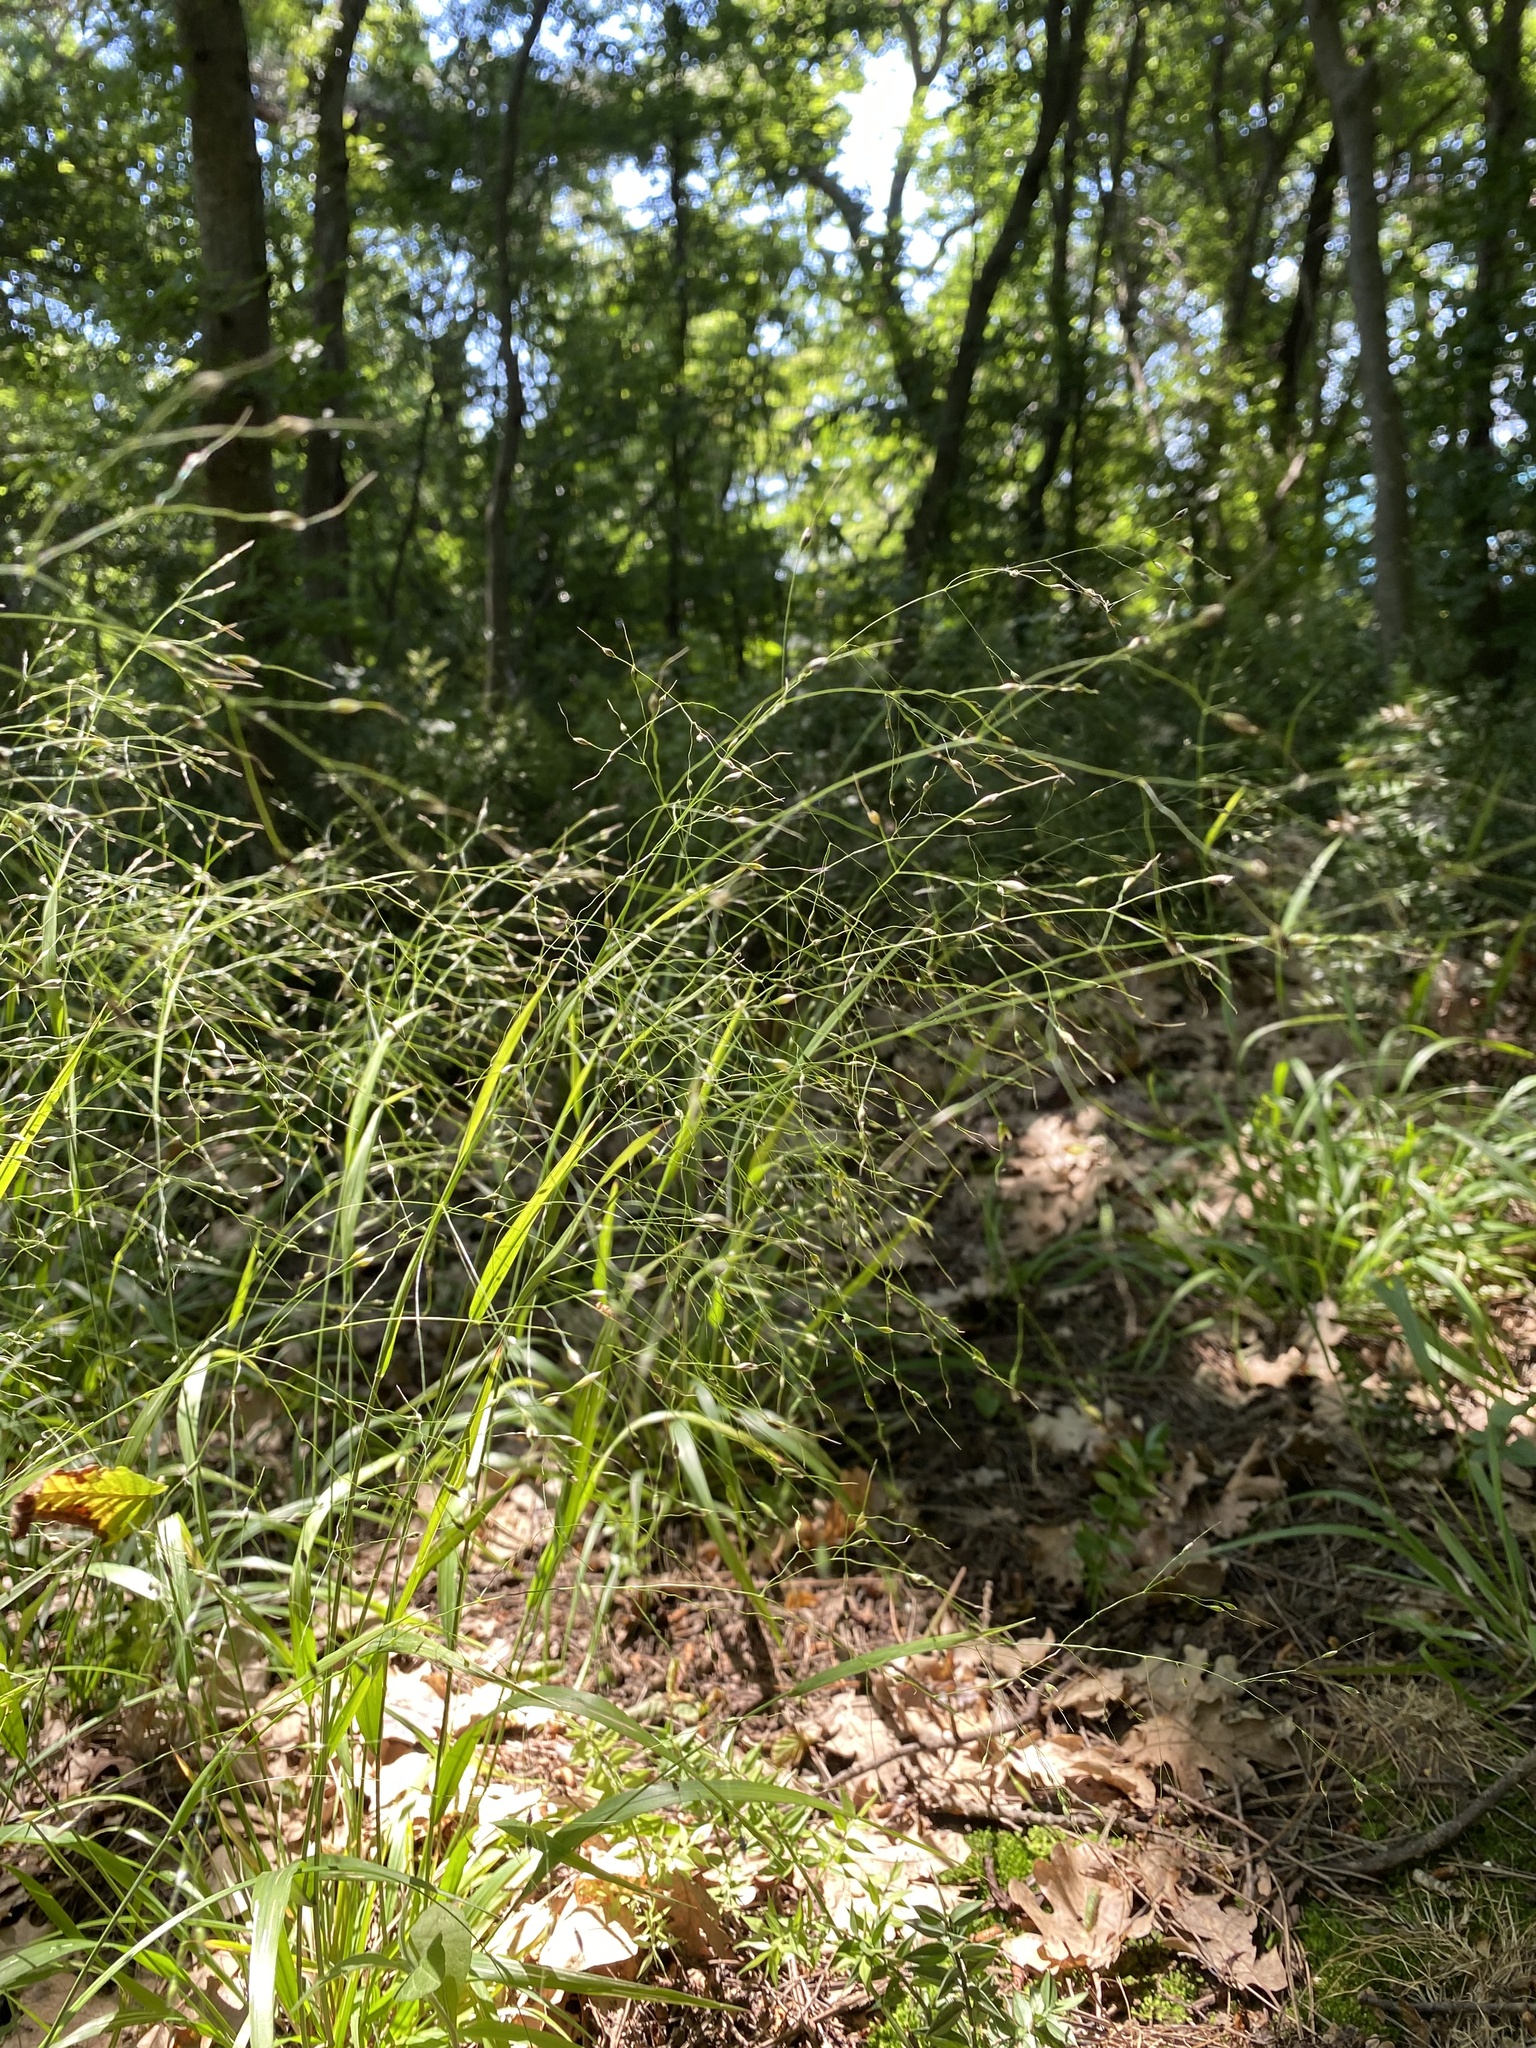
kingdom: Plantae
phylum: Tracheophyta
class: Liliopsida
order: Poales
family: Poaceae
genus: Achnatherum
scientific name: Achnatherum virescens
